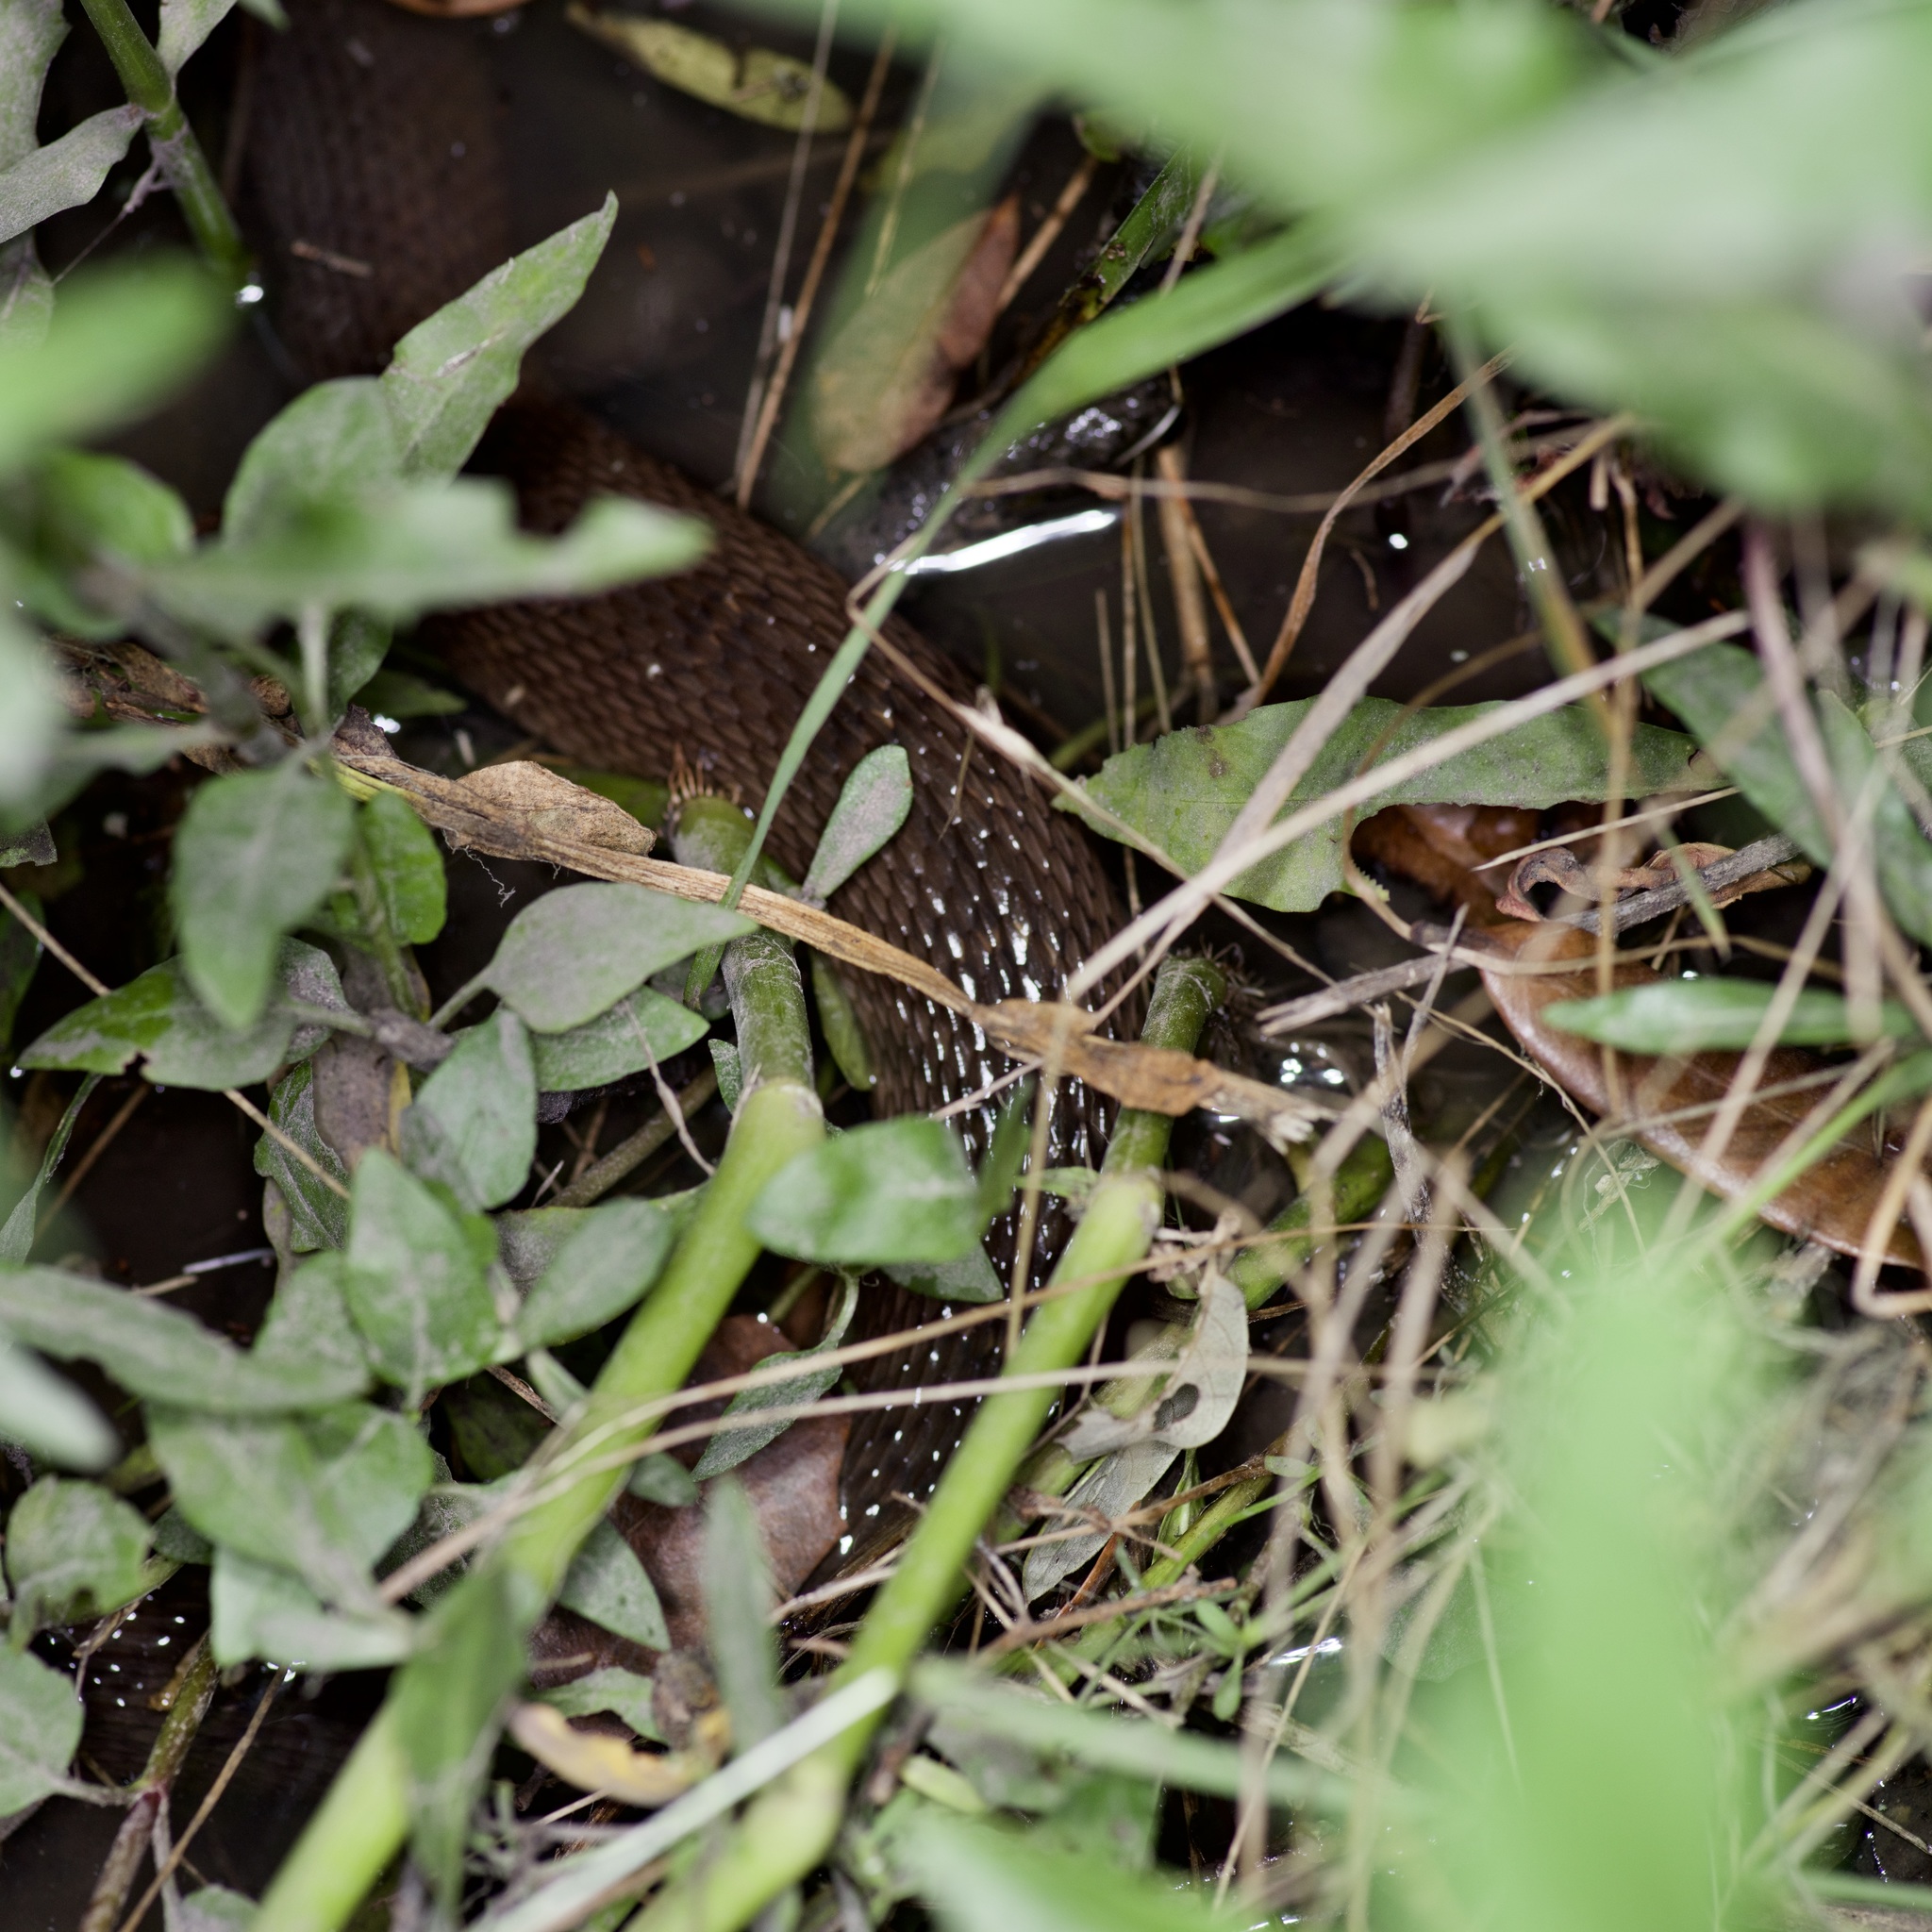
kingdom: Animalia
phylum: Chordata
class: Squamata
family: Colubridae
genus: Nerodia
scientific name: Nerodia erythrogaster
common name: Plainbelly water snake
